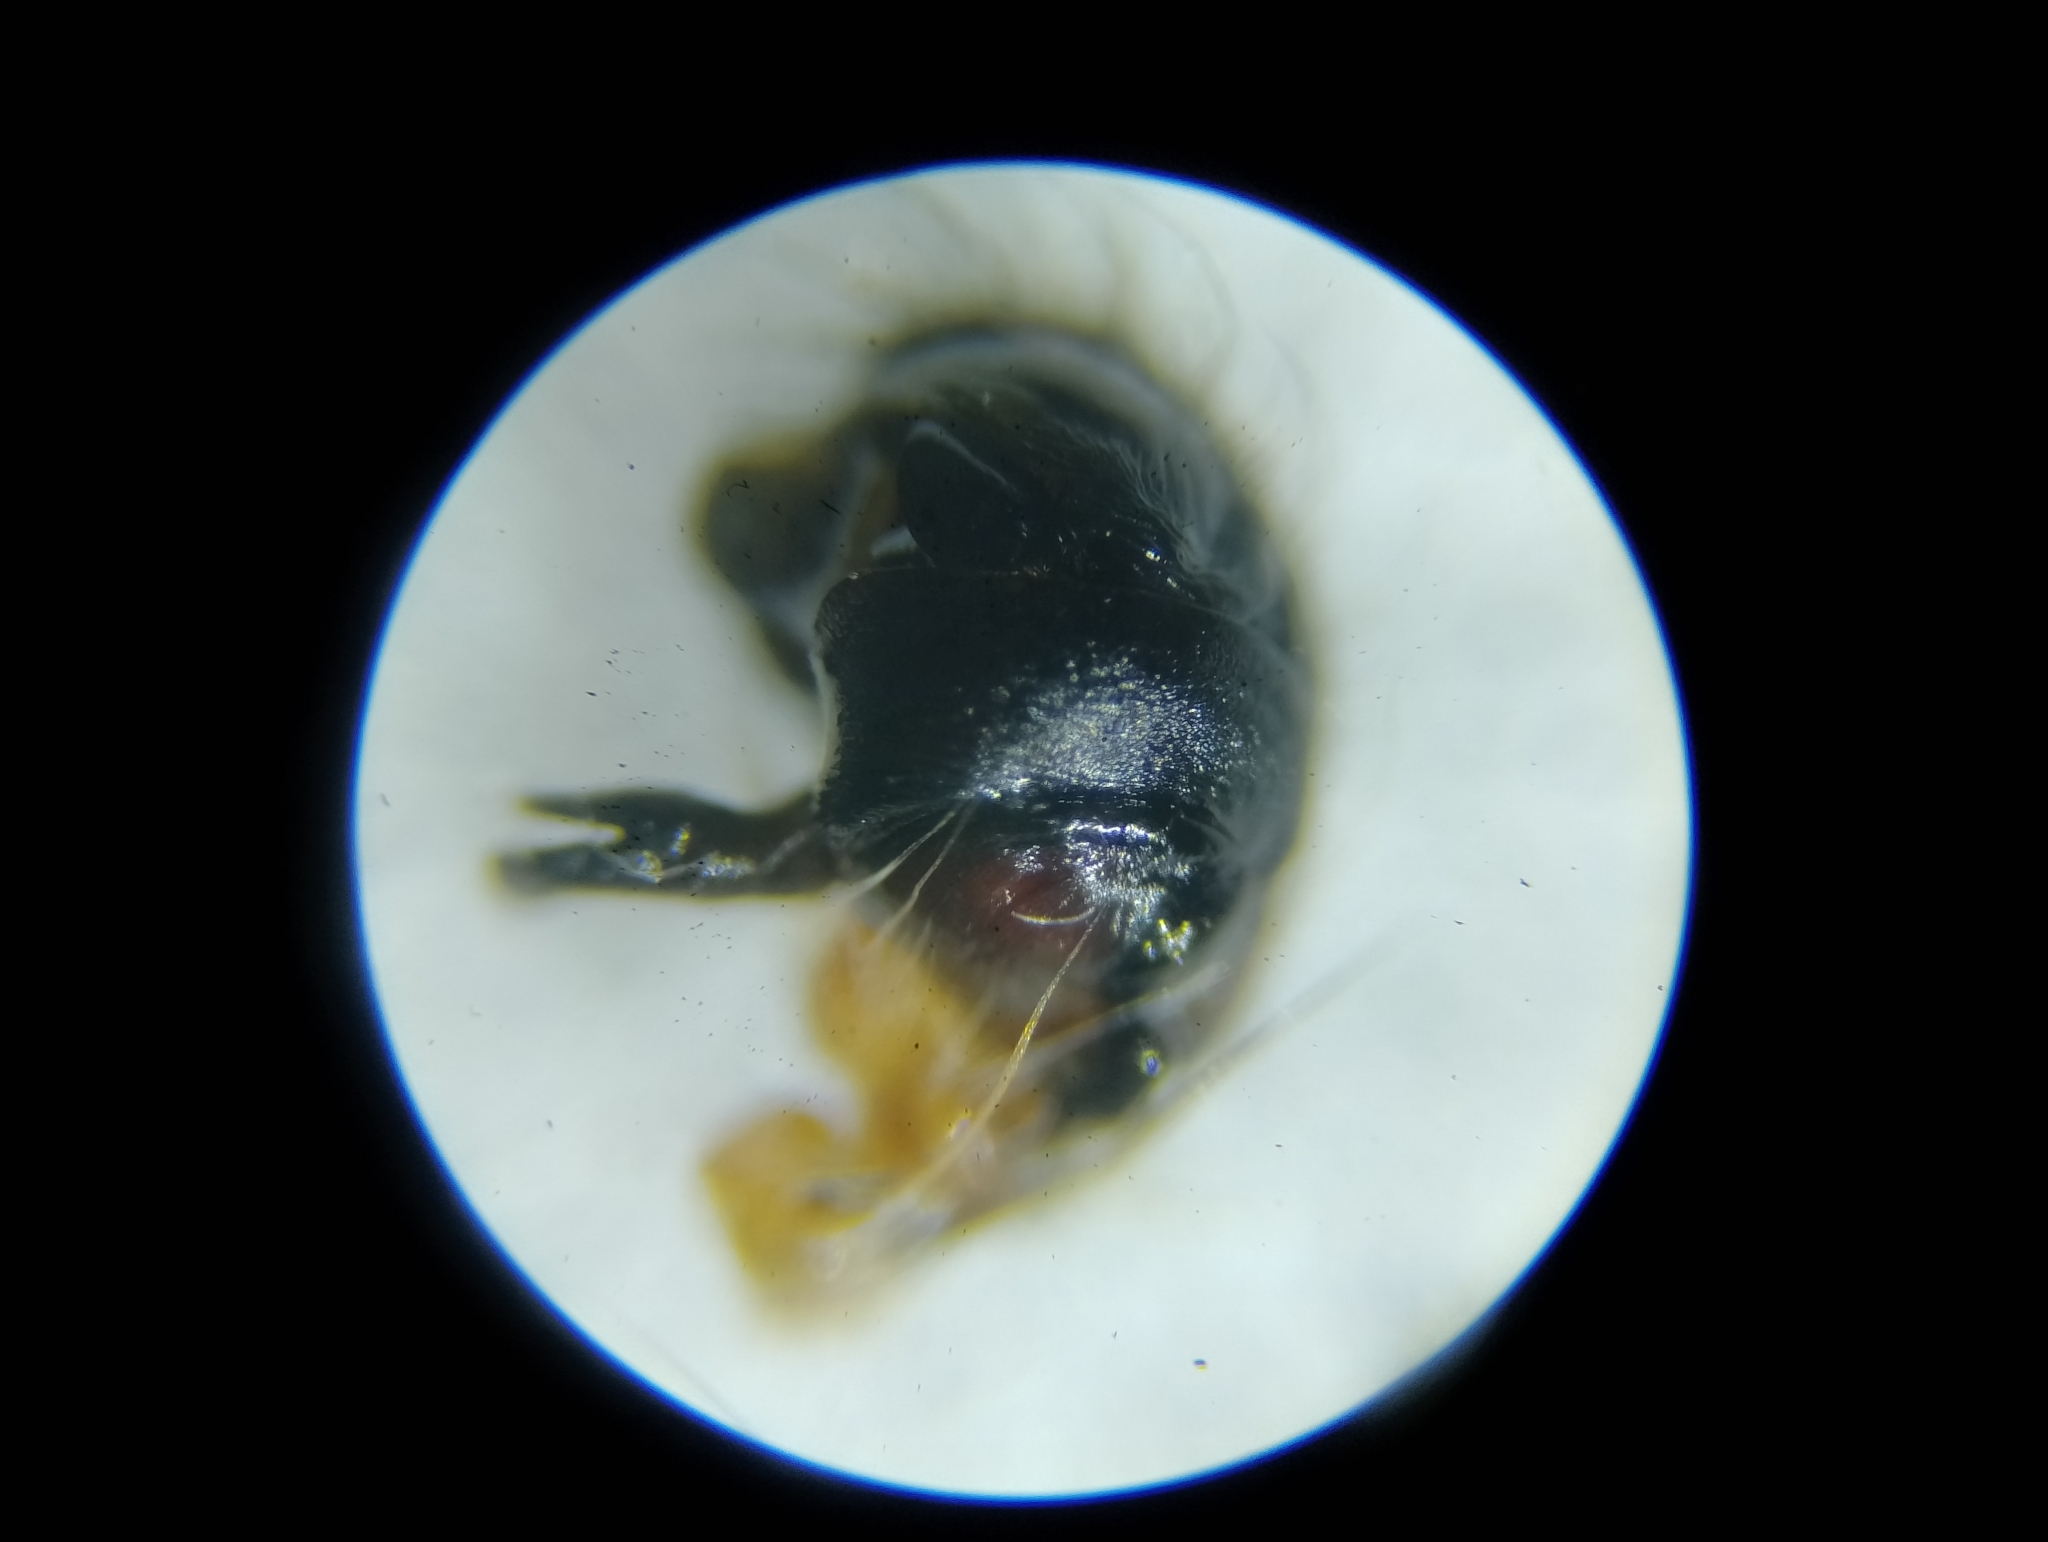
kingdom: Animalia
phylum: Arthropoda
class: Arachnida
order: Araneae
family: Araneidae
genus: Larinioides
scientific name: Larinioides suspicax
